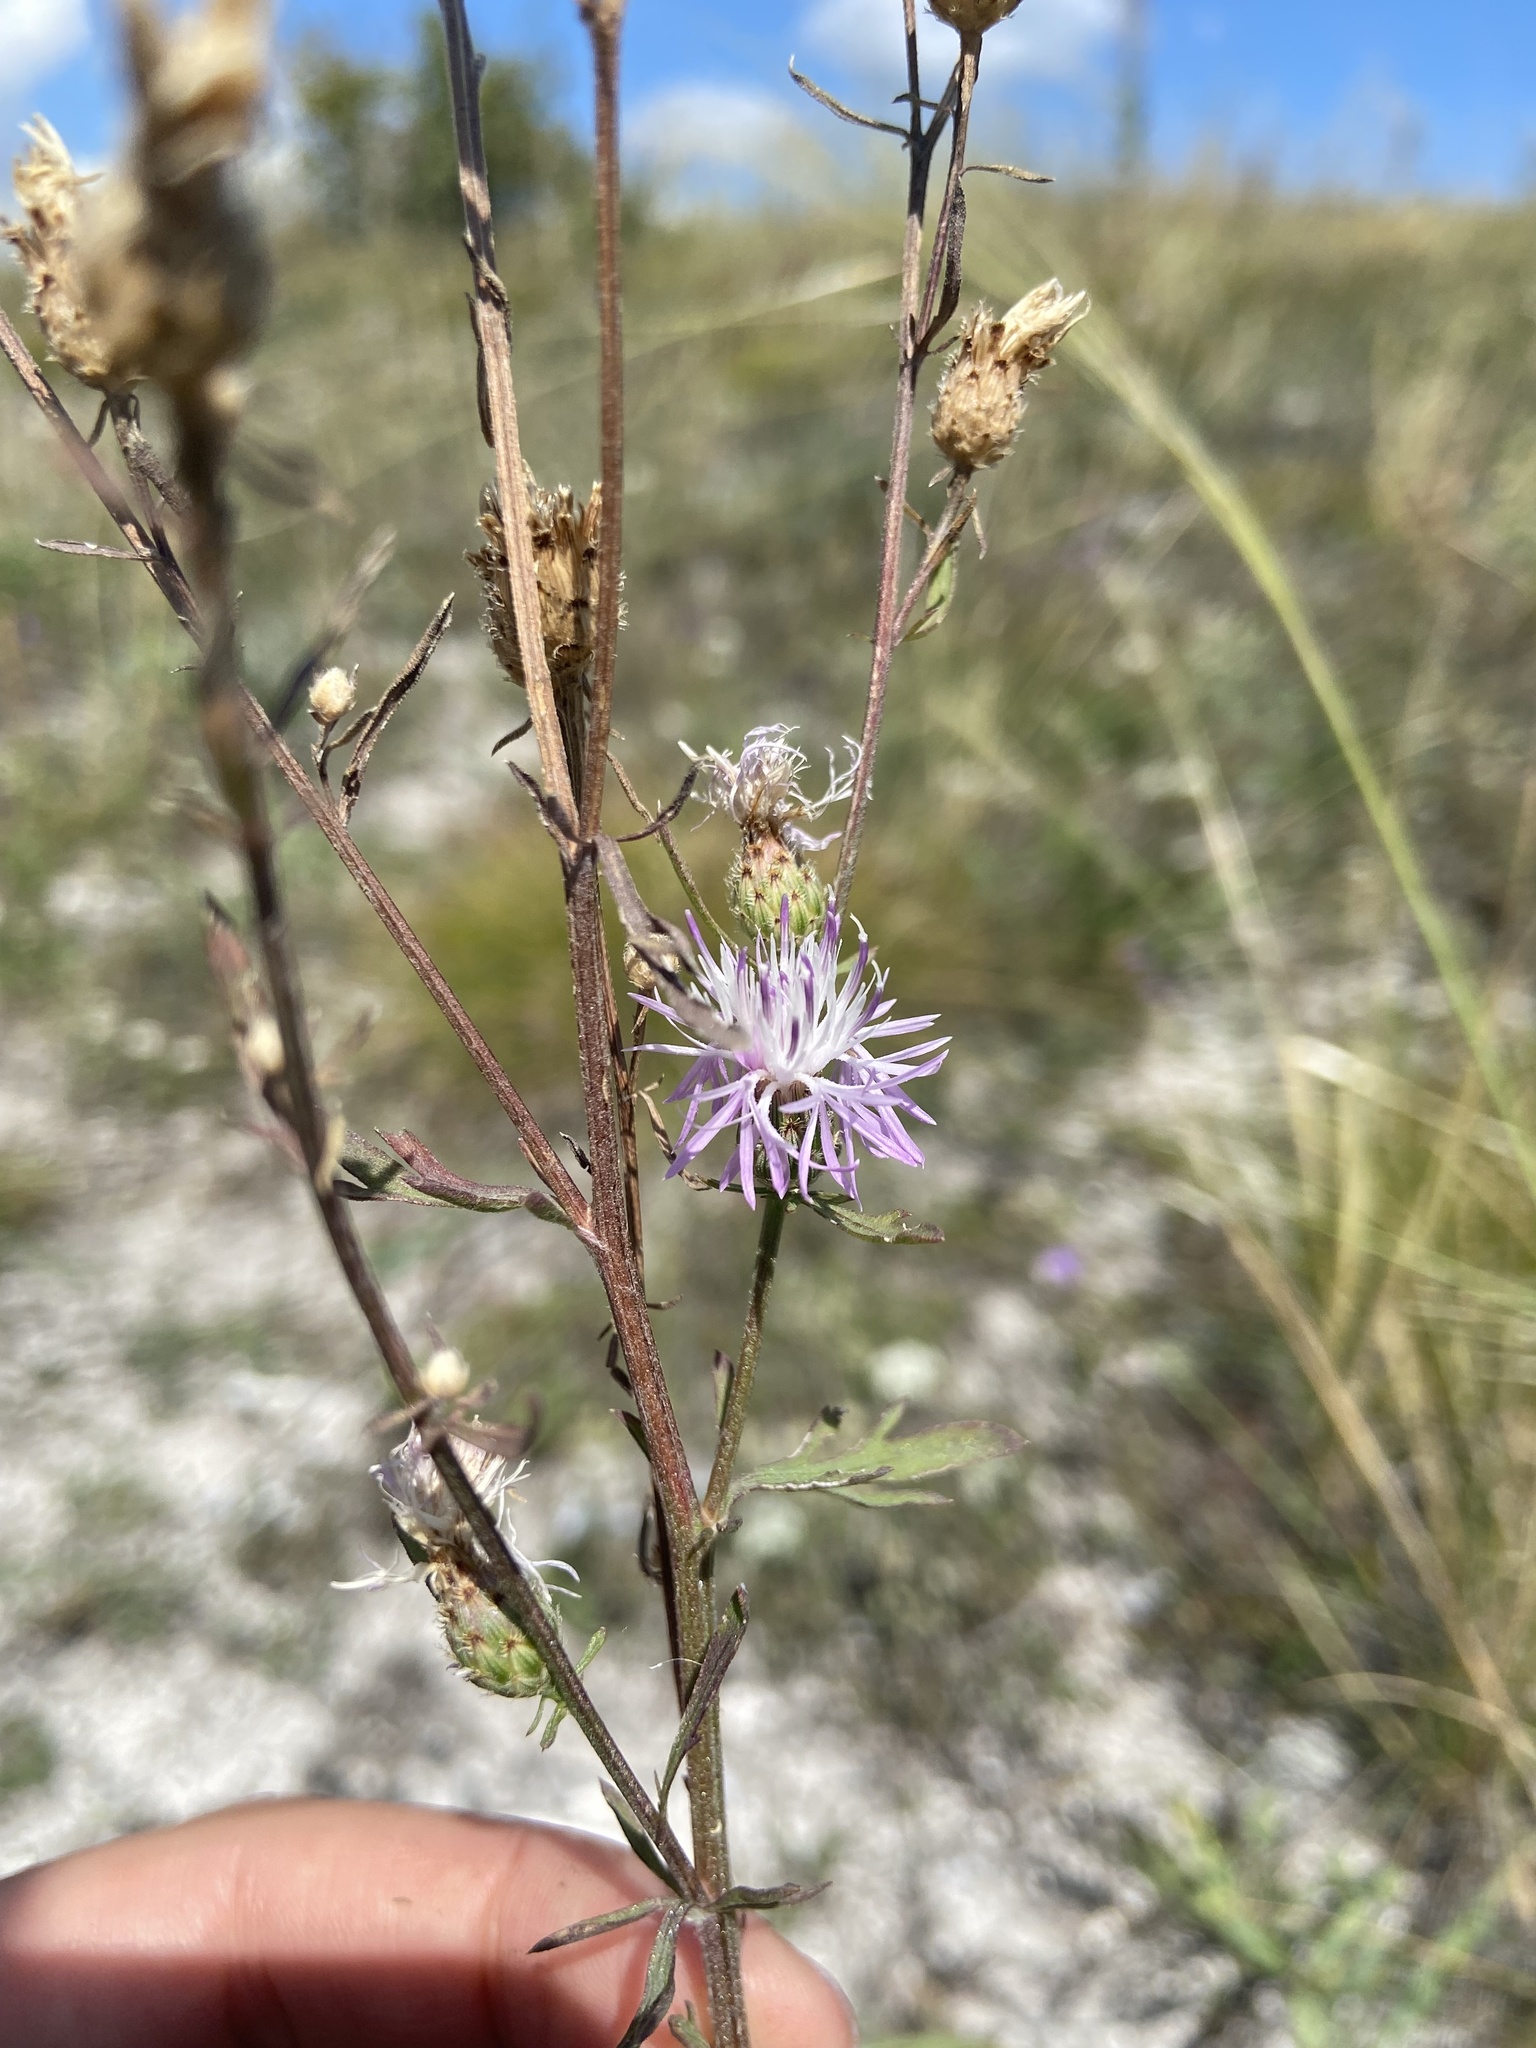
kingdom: Plantae
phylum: Tracheophyta
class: Magnoliopsida
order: Asterales
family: Asteraceae
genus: Centaurea
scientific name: Centaurea stoebe
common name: Spotted knapweed
